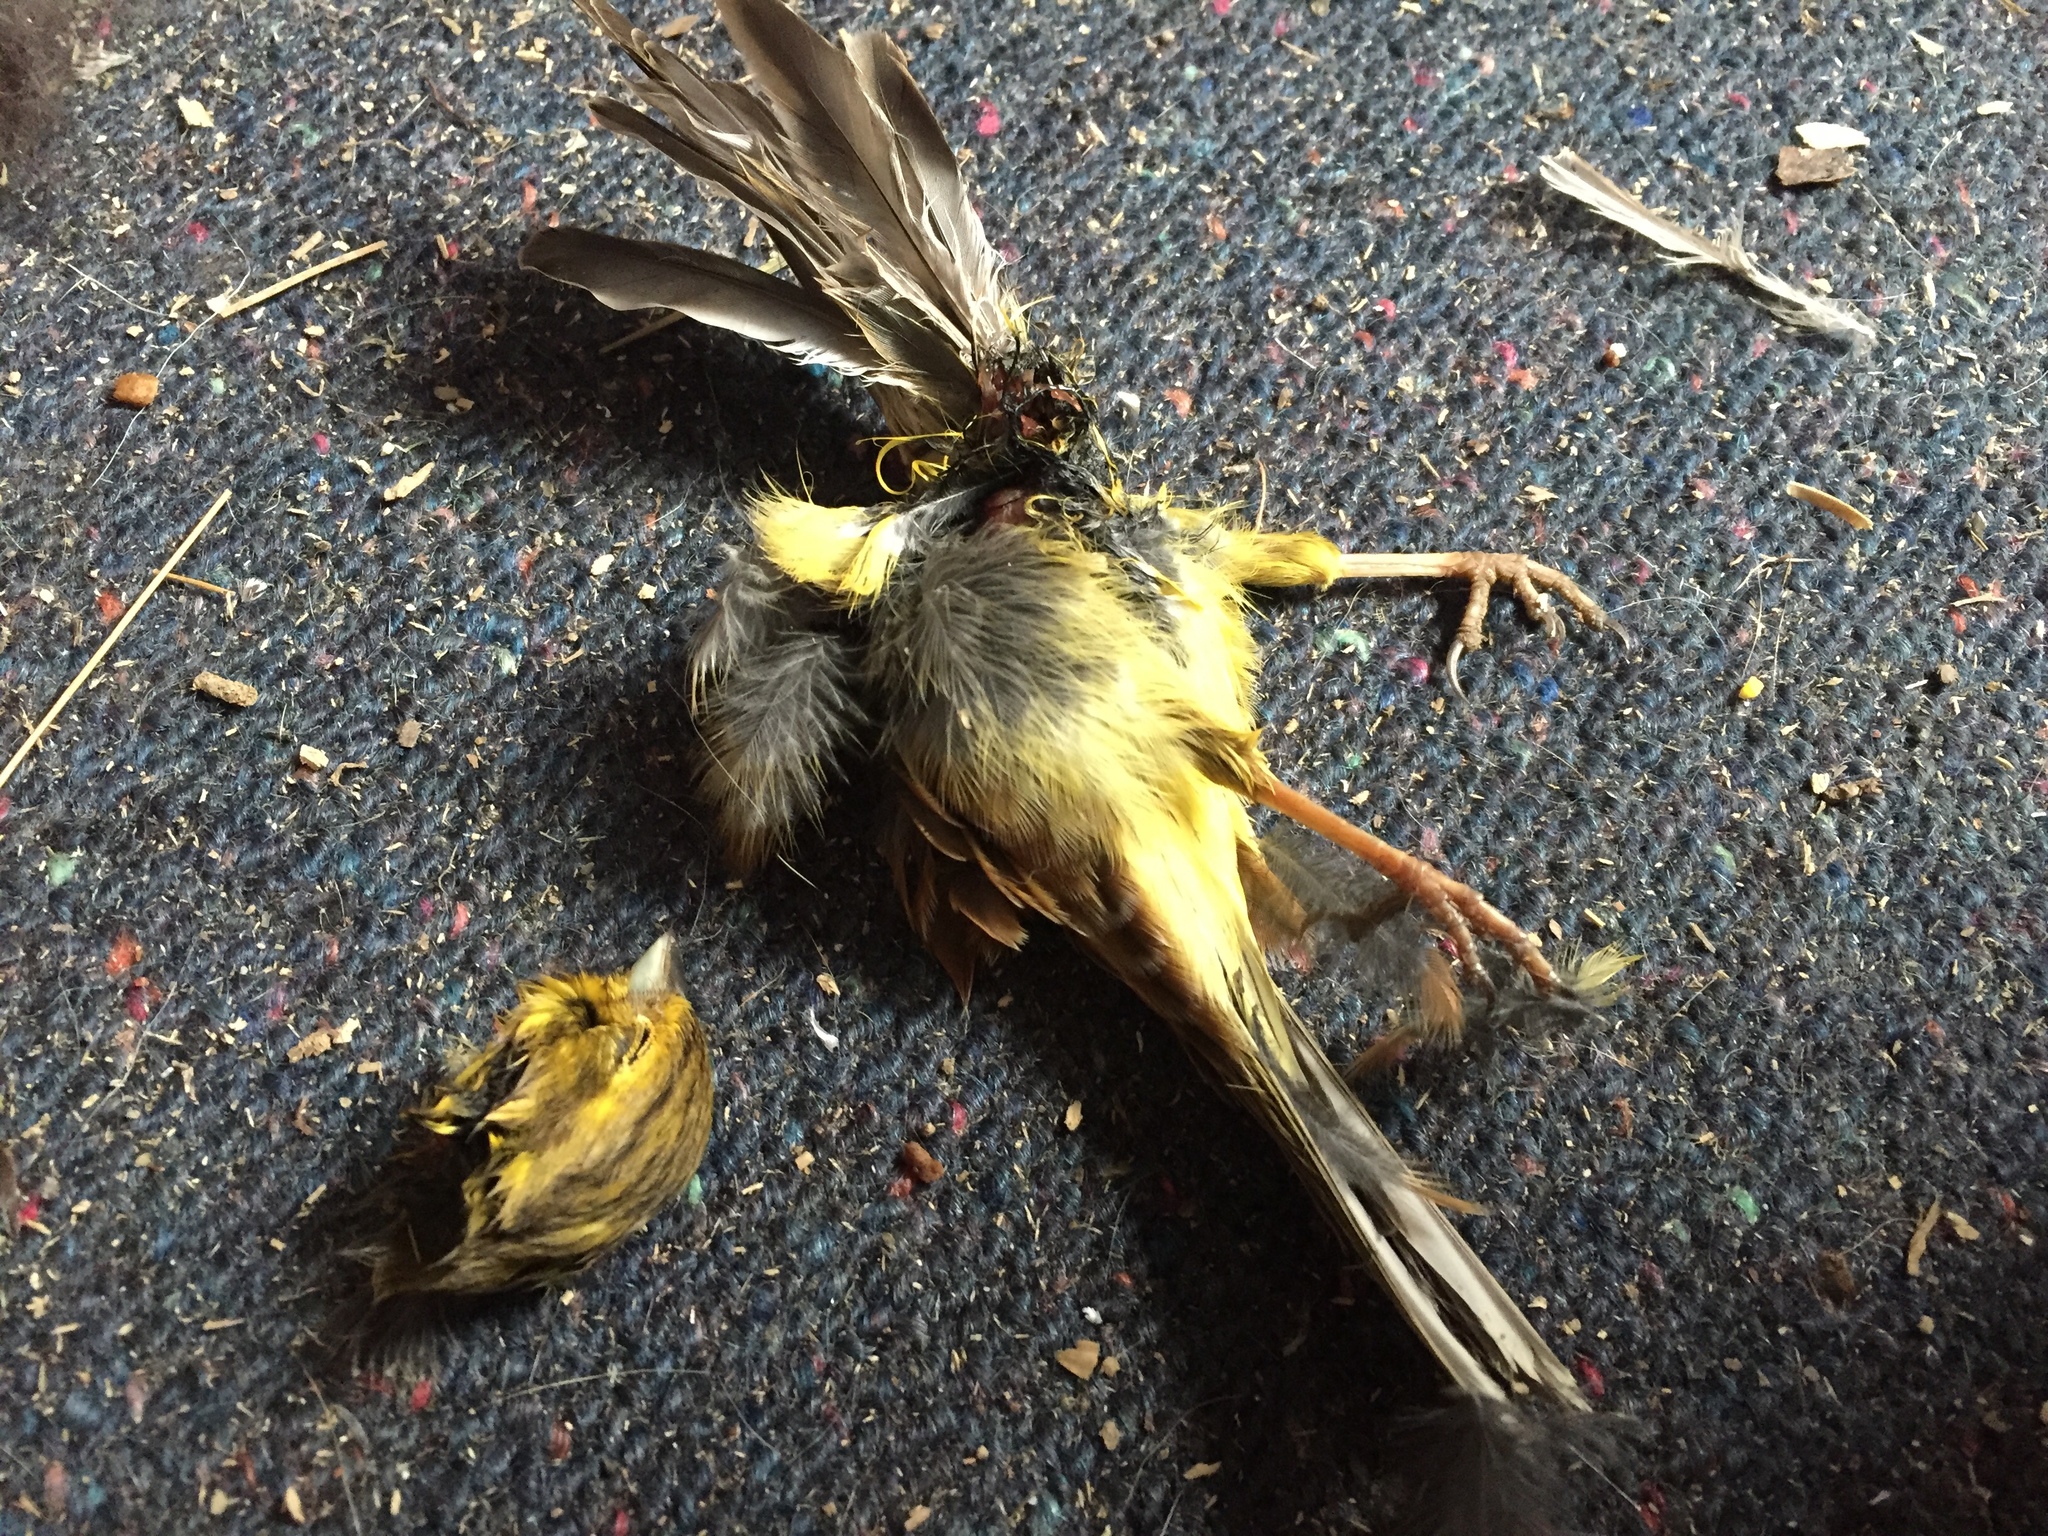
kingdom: Animalia
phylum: Chordata
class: Aves
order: Passeriformes
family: Emberizidae
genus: Emberiza
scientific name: Emberiza citrinella
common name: Yellowhammer
